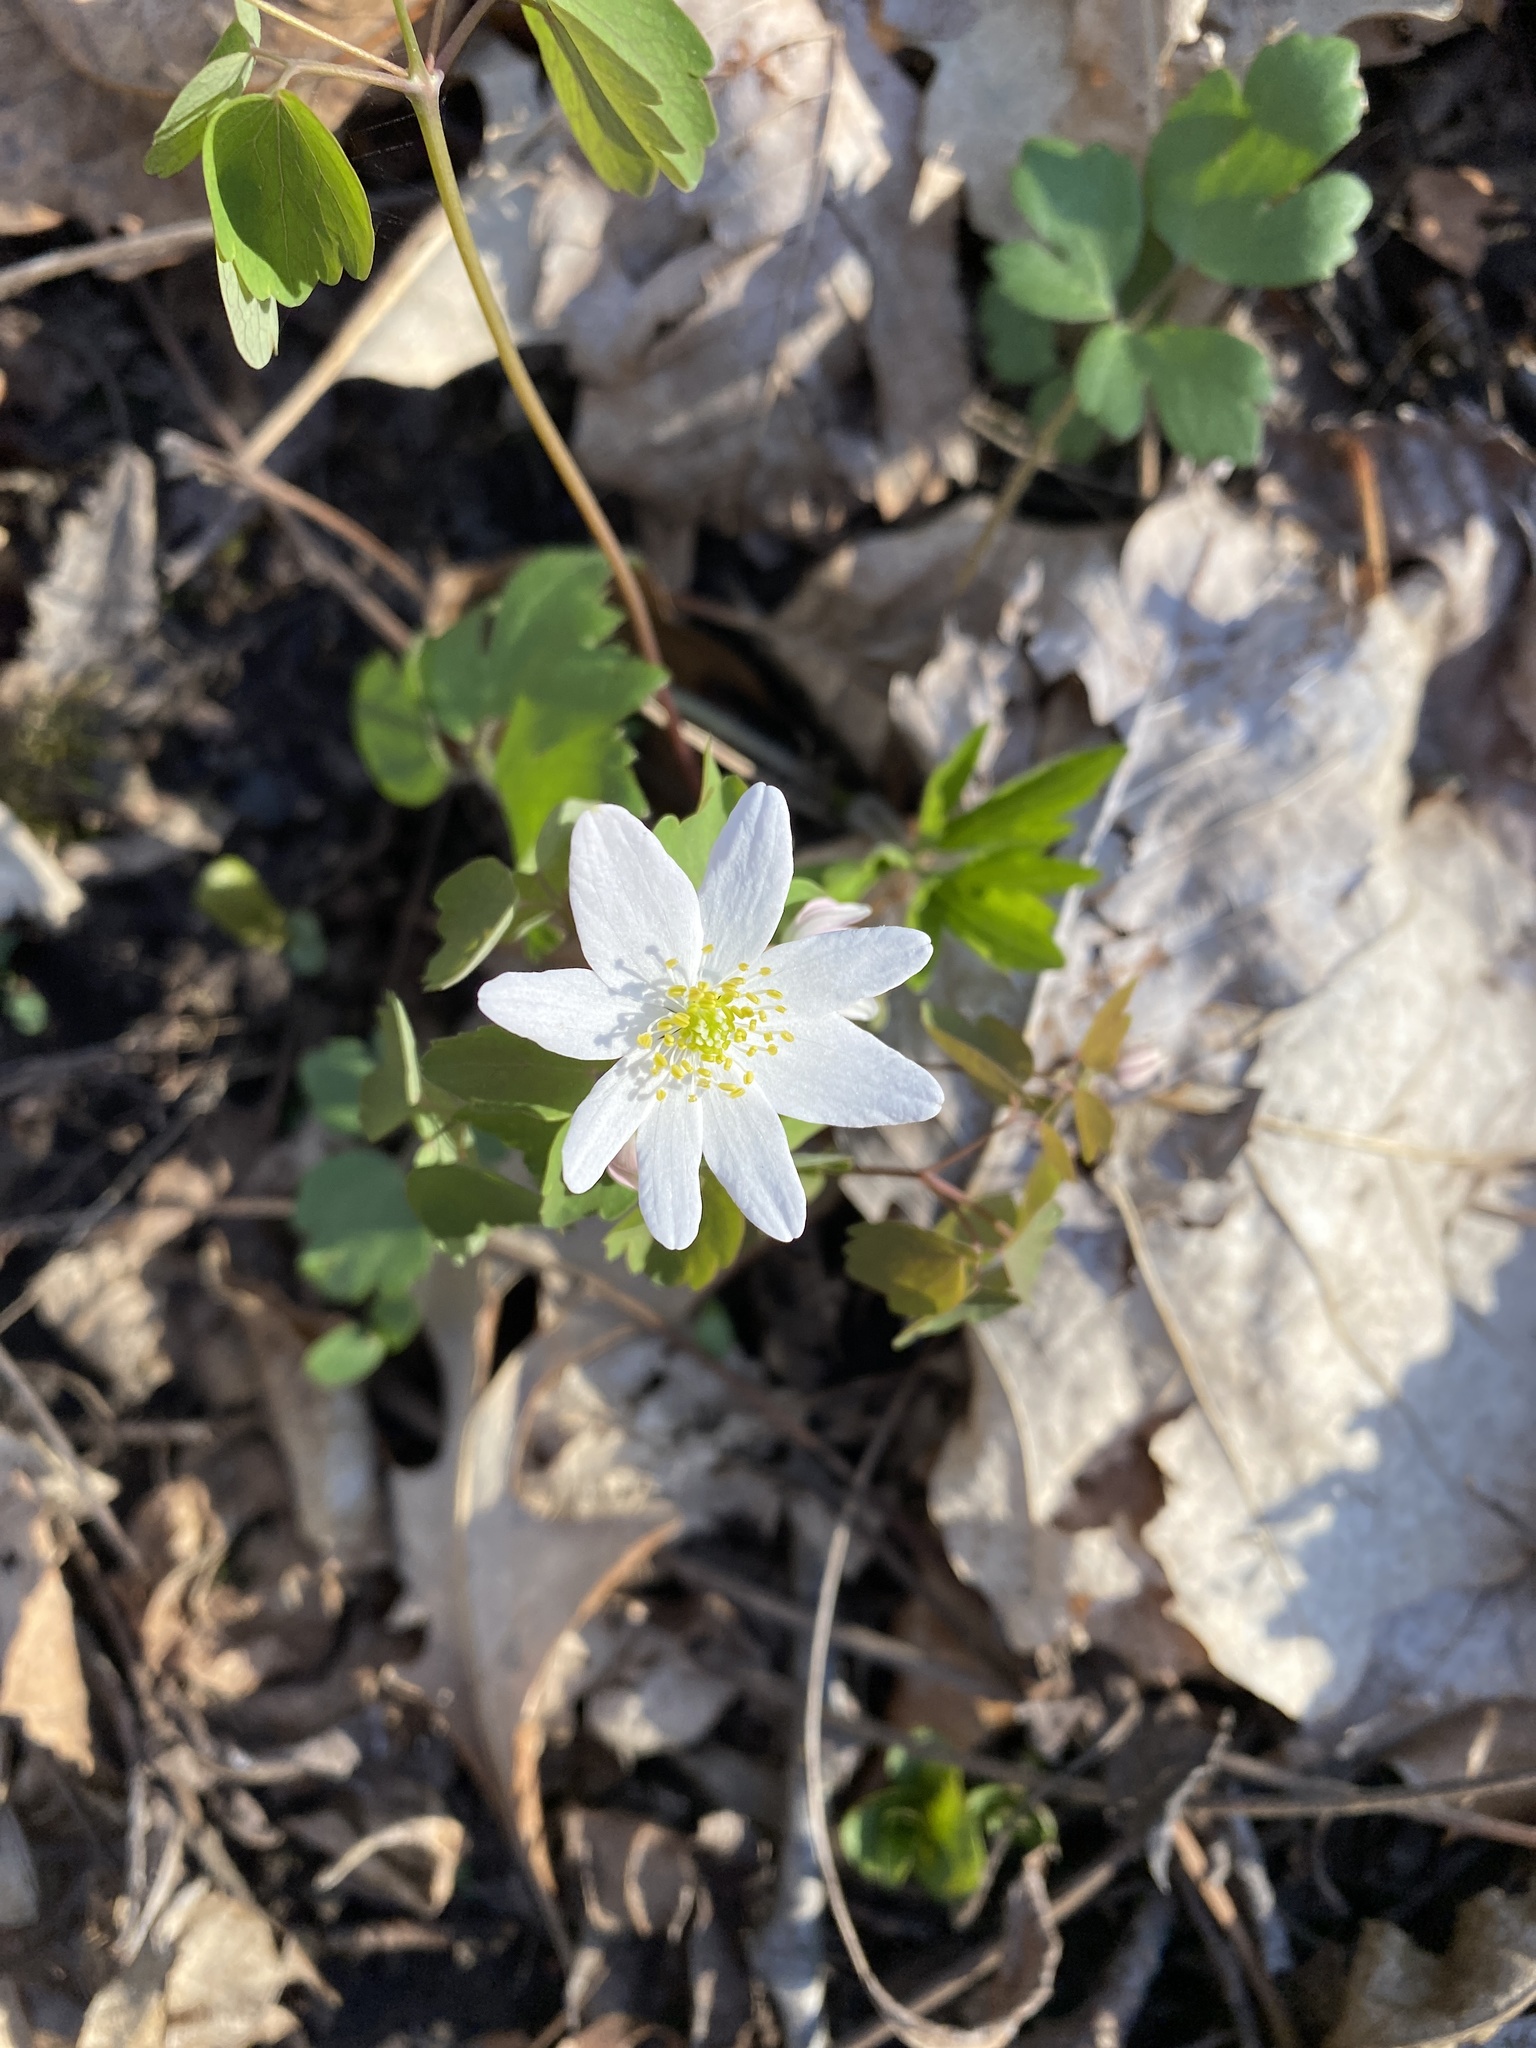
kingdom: Plantae
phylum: Tracheophyta
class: Magnoliopsida
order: Ranunculales
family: Ranunculaceae
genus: Thalictrum
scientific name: Thalictrum thalictroides
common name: Rue-anemone
